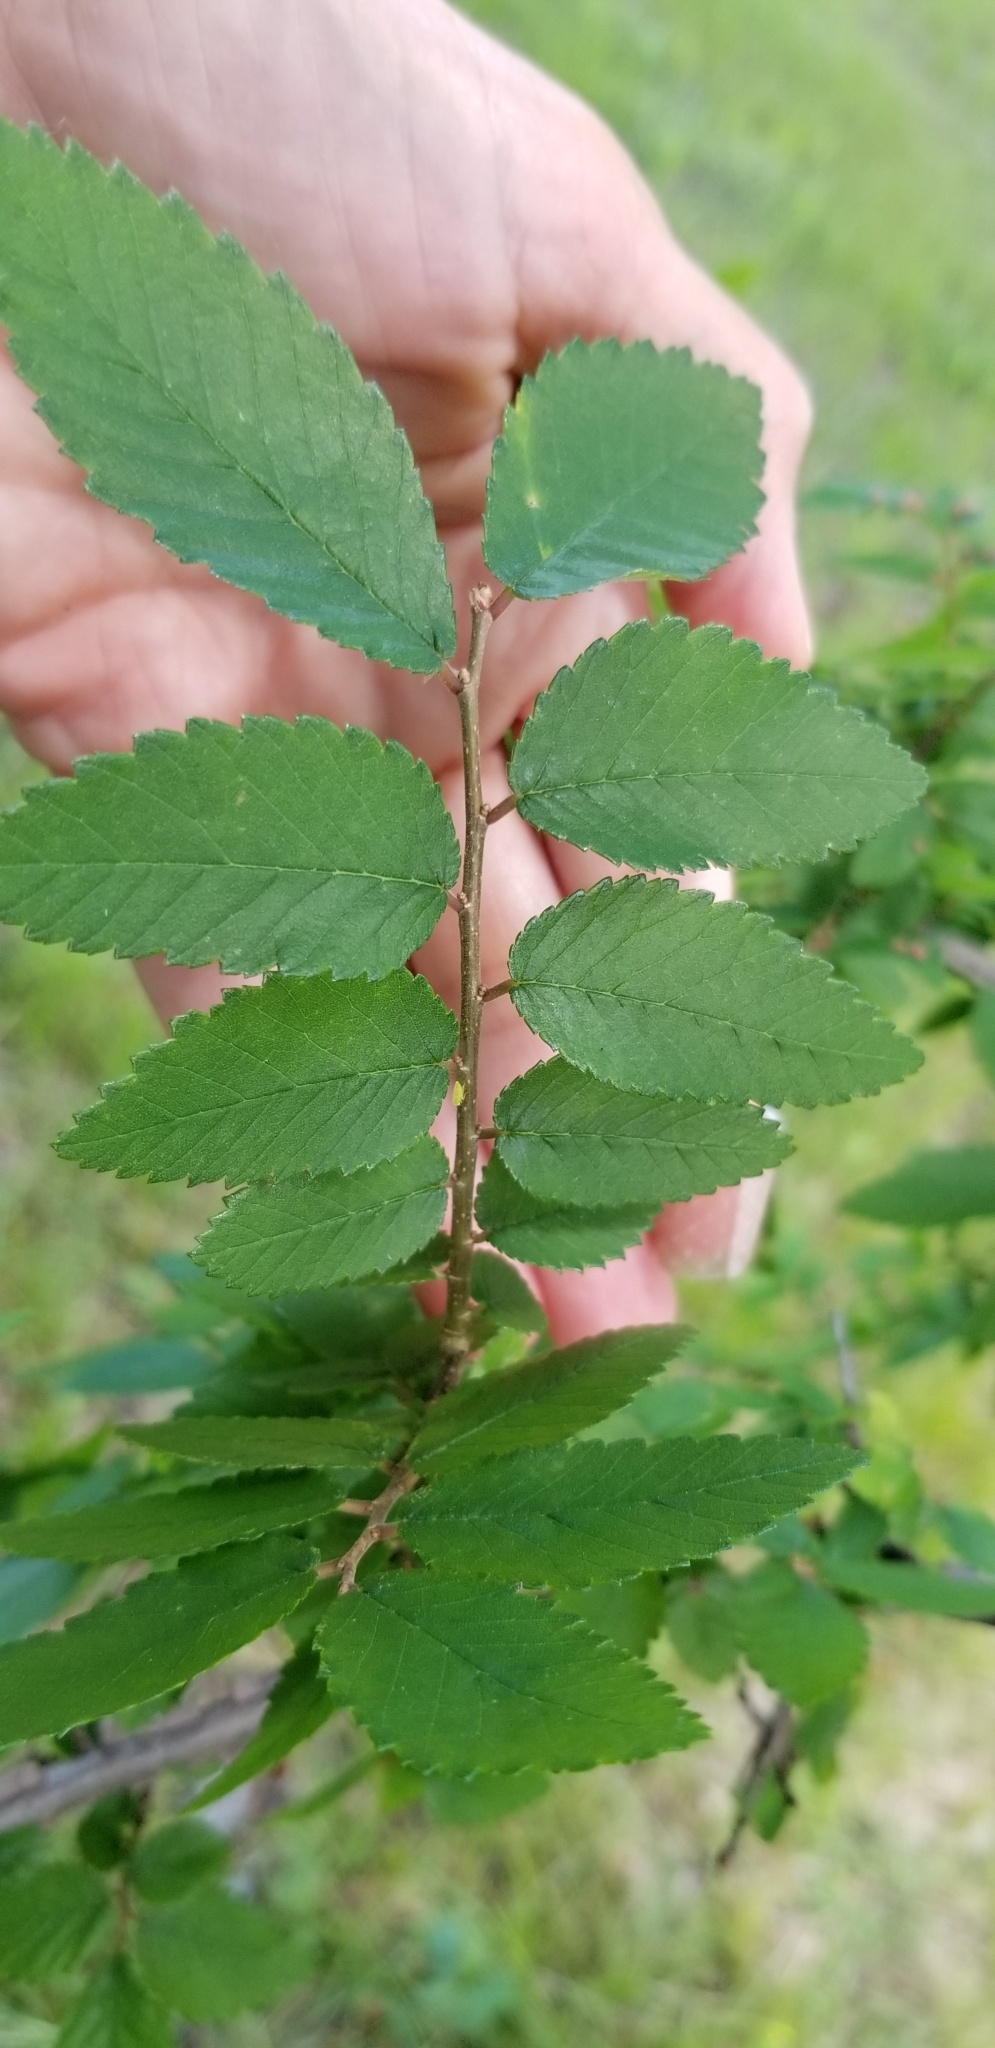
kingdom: Plantae
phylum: Tracheophyta
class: Magnoliopsida
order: Rosales
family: Ulmaceae
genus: Ulmus
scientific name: Ulmus crassifolia
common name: Basket elm
